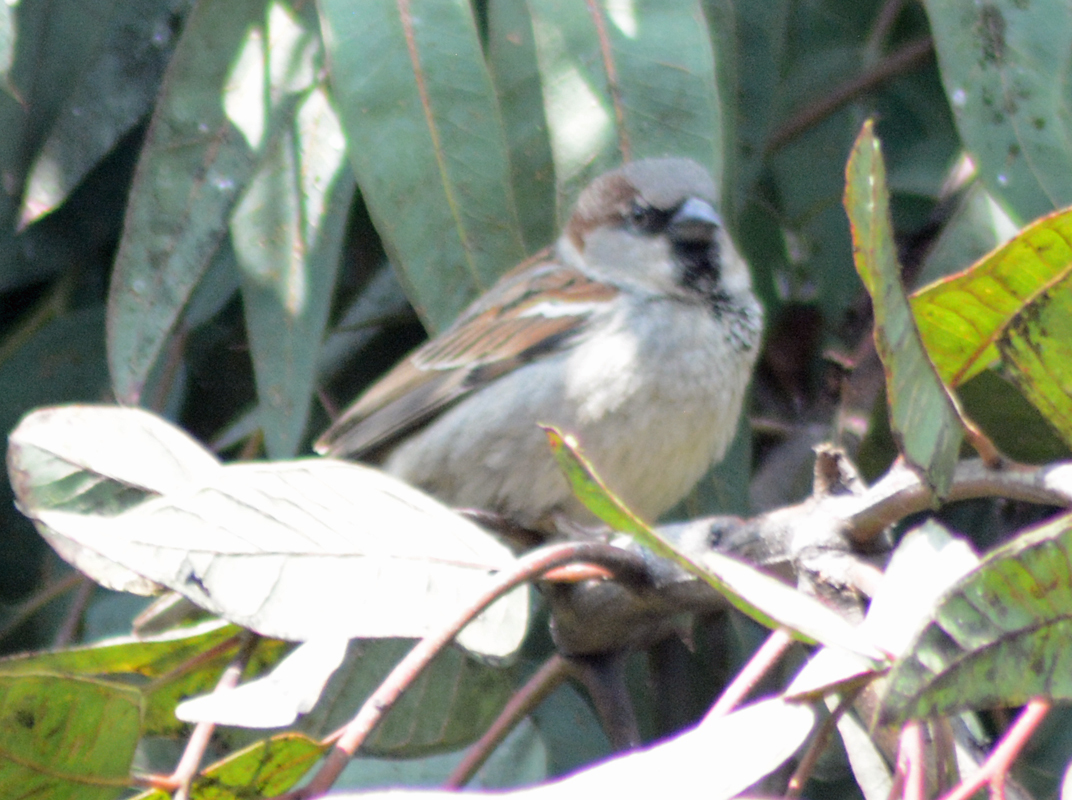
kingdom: Animalia
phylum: Chordata
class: Aves
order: Passeriformes
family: Passeridae
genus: Passer
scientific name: Passer domesticus
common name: House sparrow
